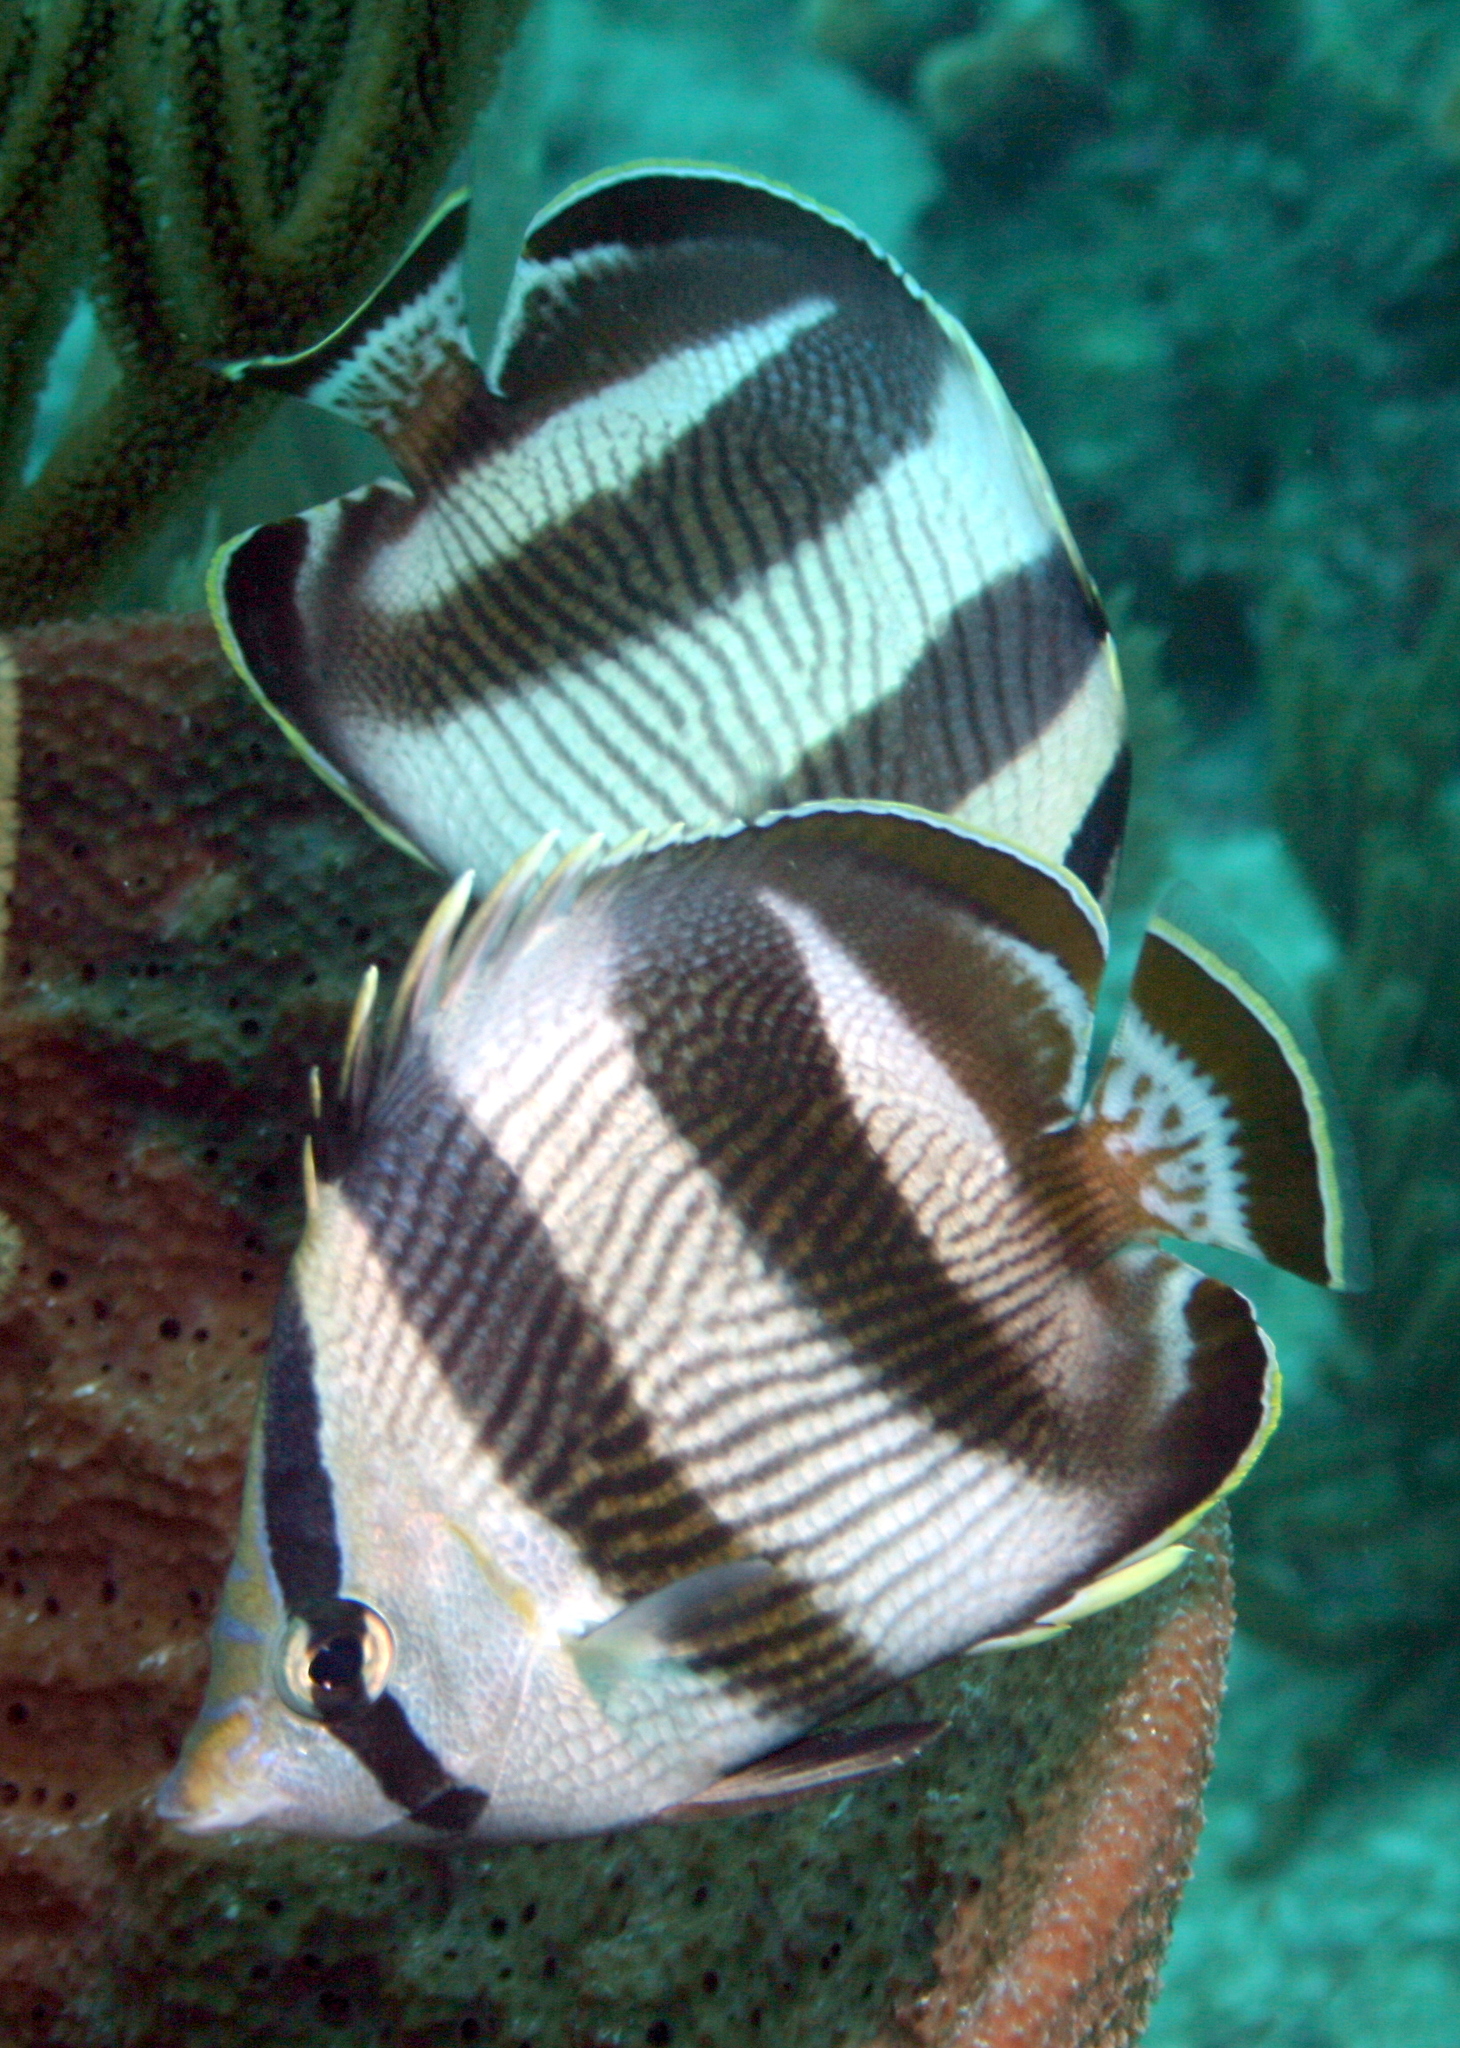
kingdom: Animalia
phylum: Chordata
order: Perciformes
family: Chaetodontidae
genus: Chaetodon
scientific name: Chaetodon striatus
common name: Banded butterflyfish
